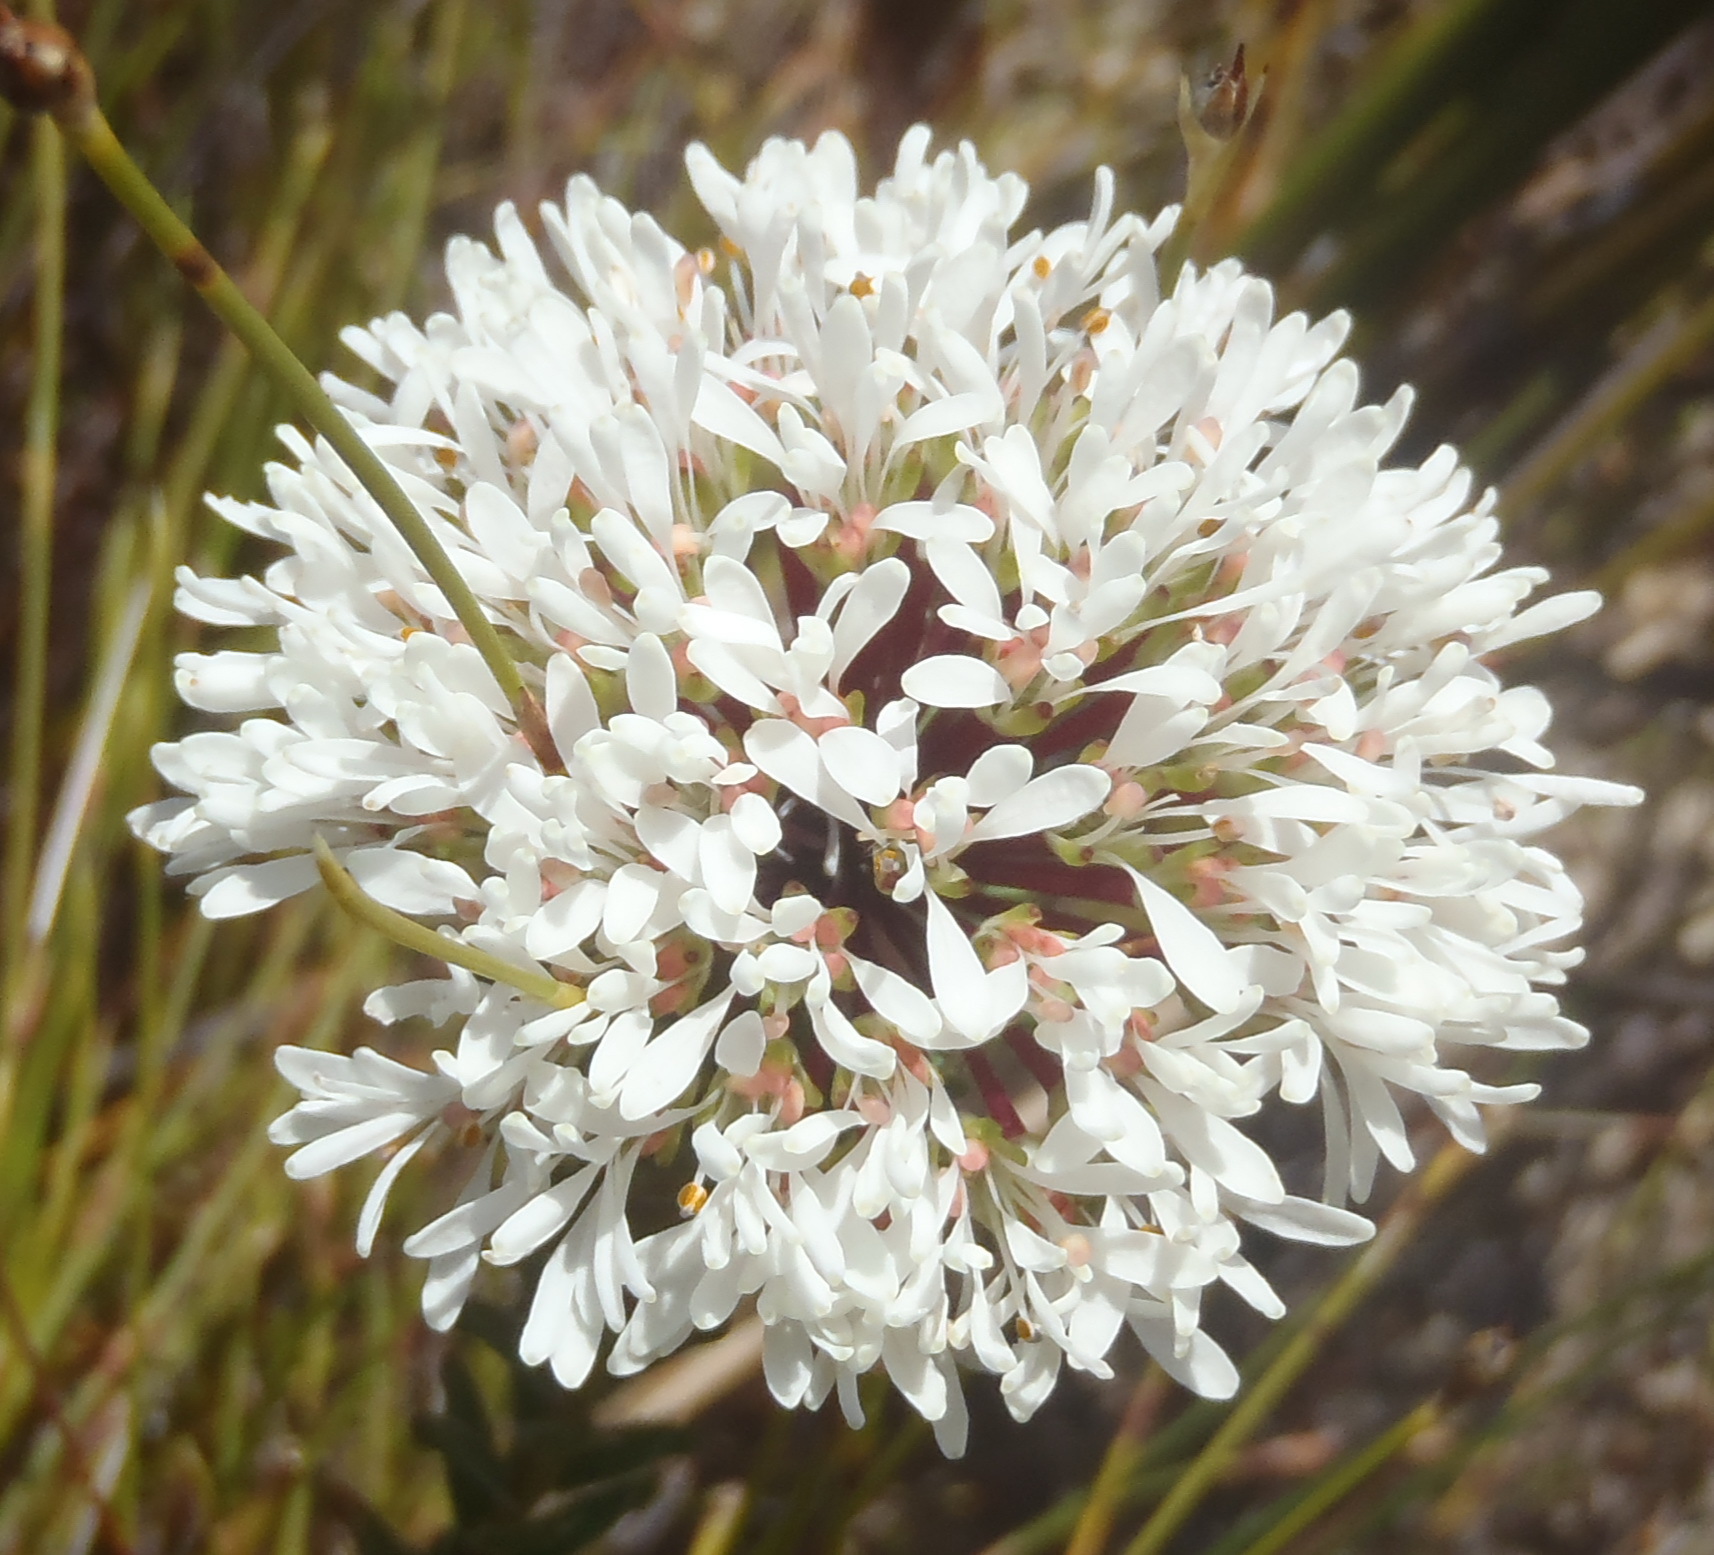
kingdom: Plantae
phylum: Tracheophyta
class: Magnoliopsida
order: Sapindales
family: Rutaceae
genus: Agathosma
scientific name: Agathosma bifida
